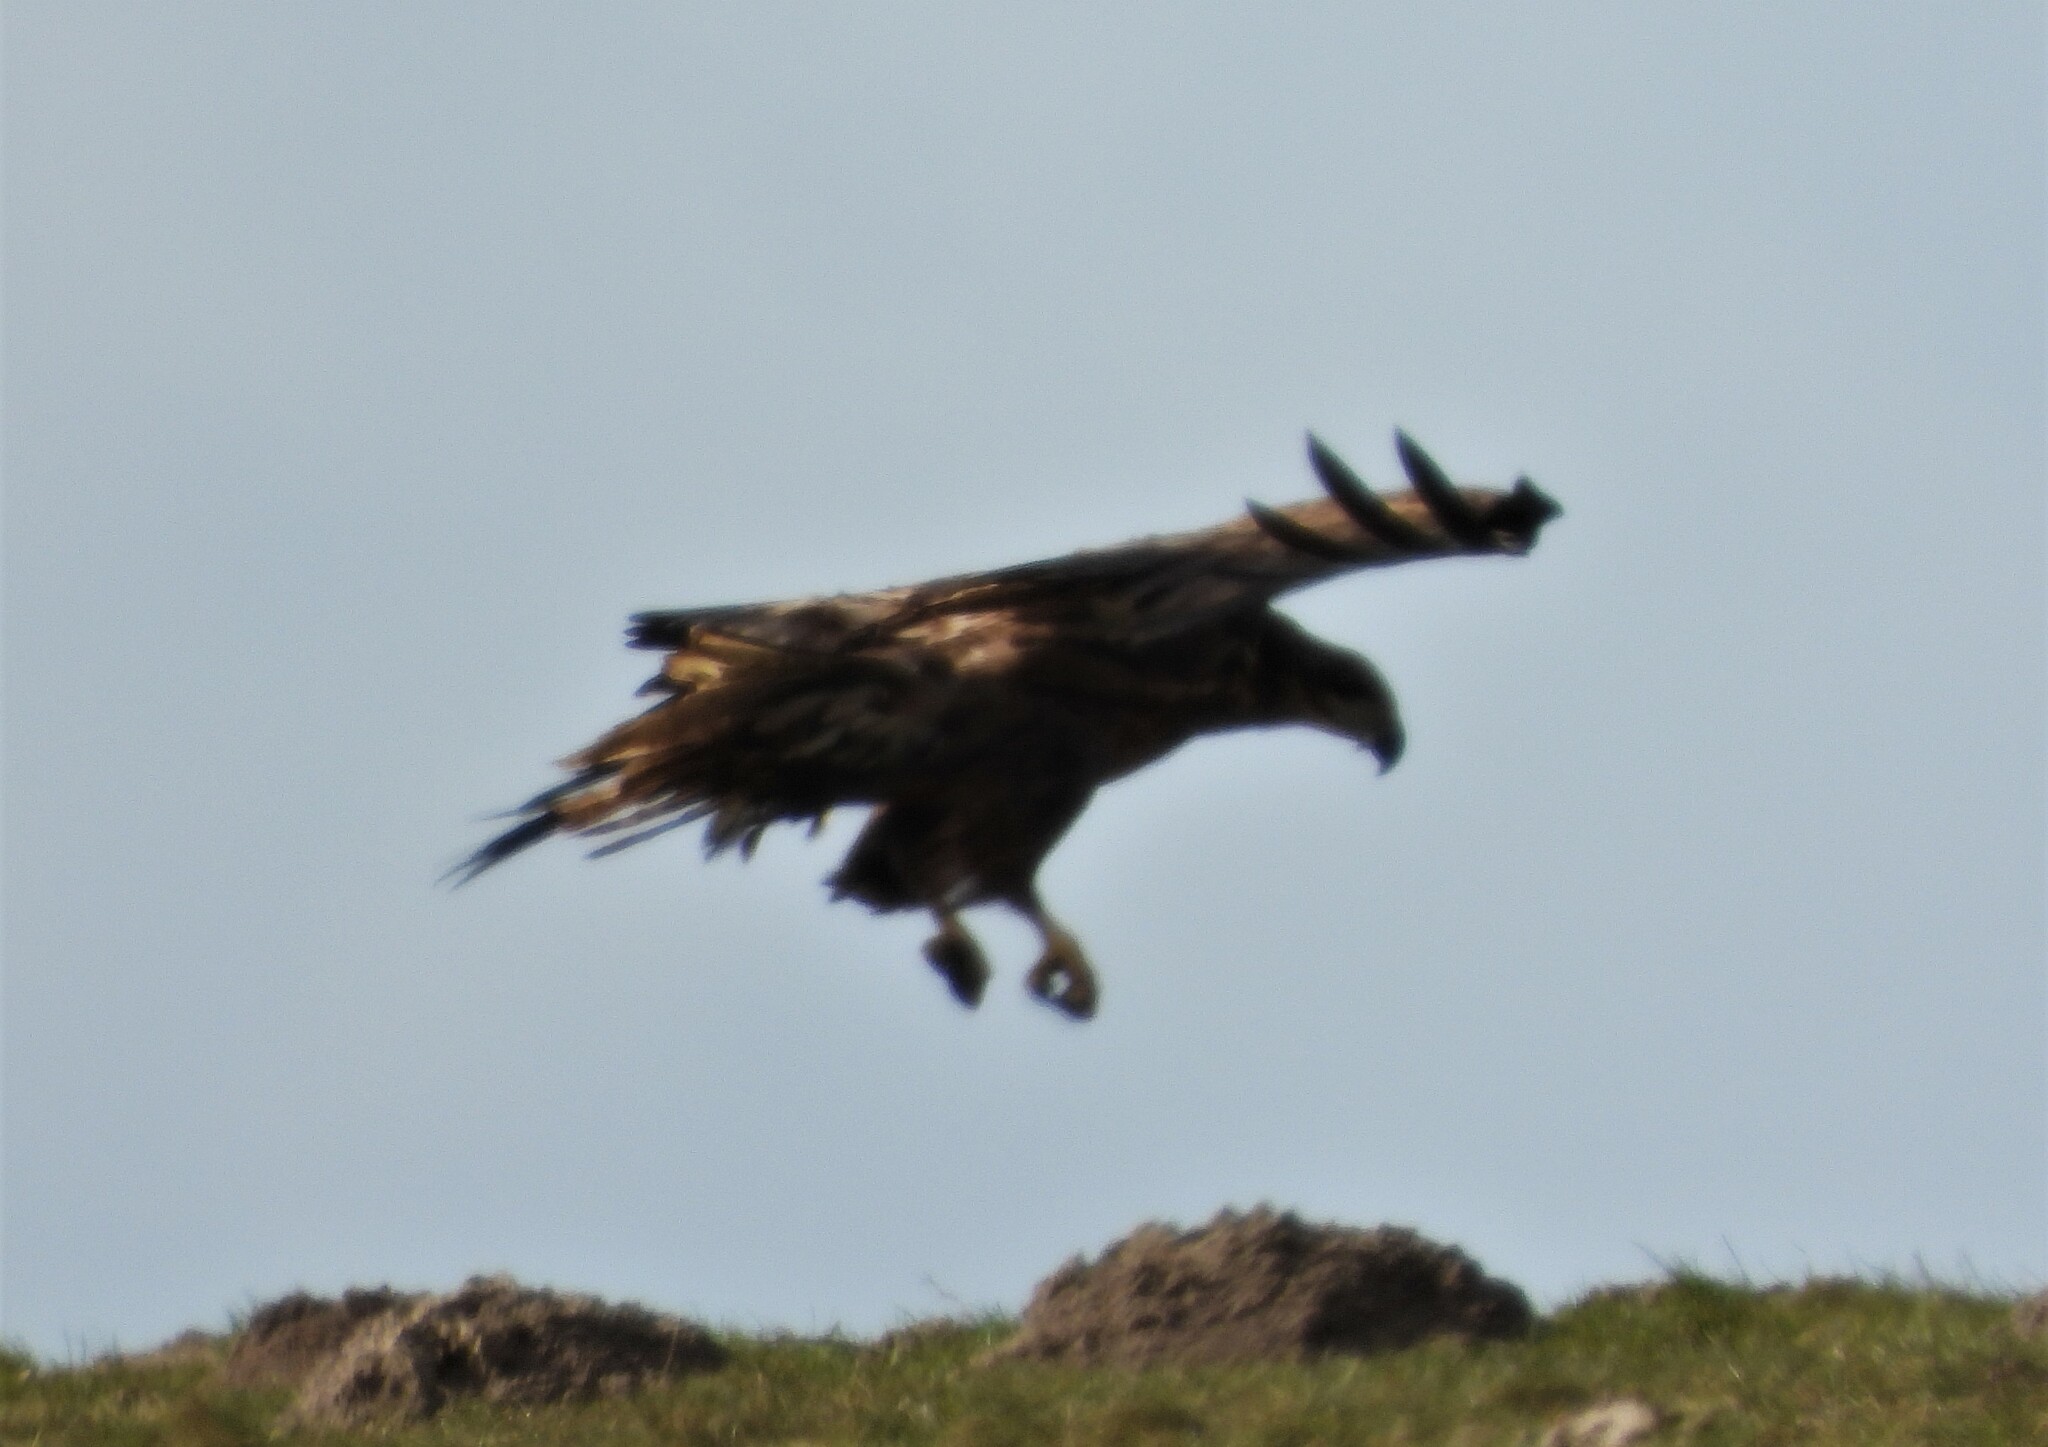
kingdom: Animalia
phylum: Chordata
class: Aves
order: Accipitriformes
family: Accipitridae
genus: Haliaeetus
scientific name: Haliaeetus albicilla
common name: White-tailed eagle
